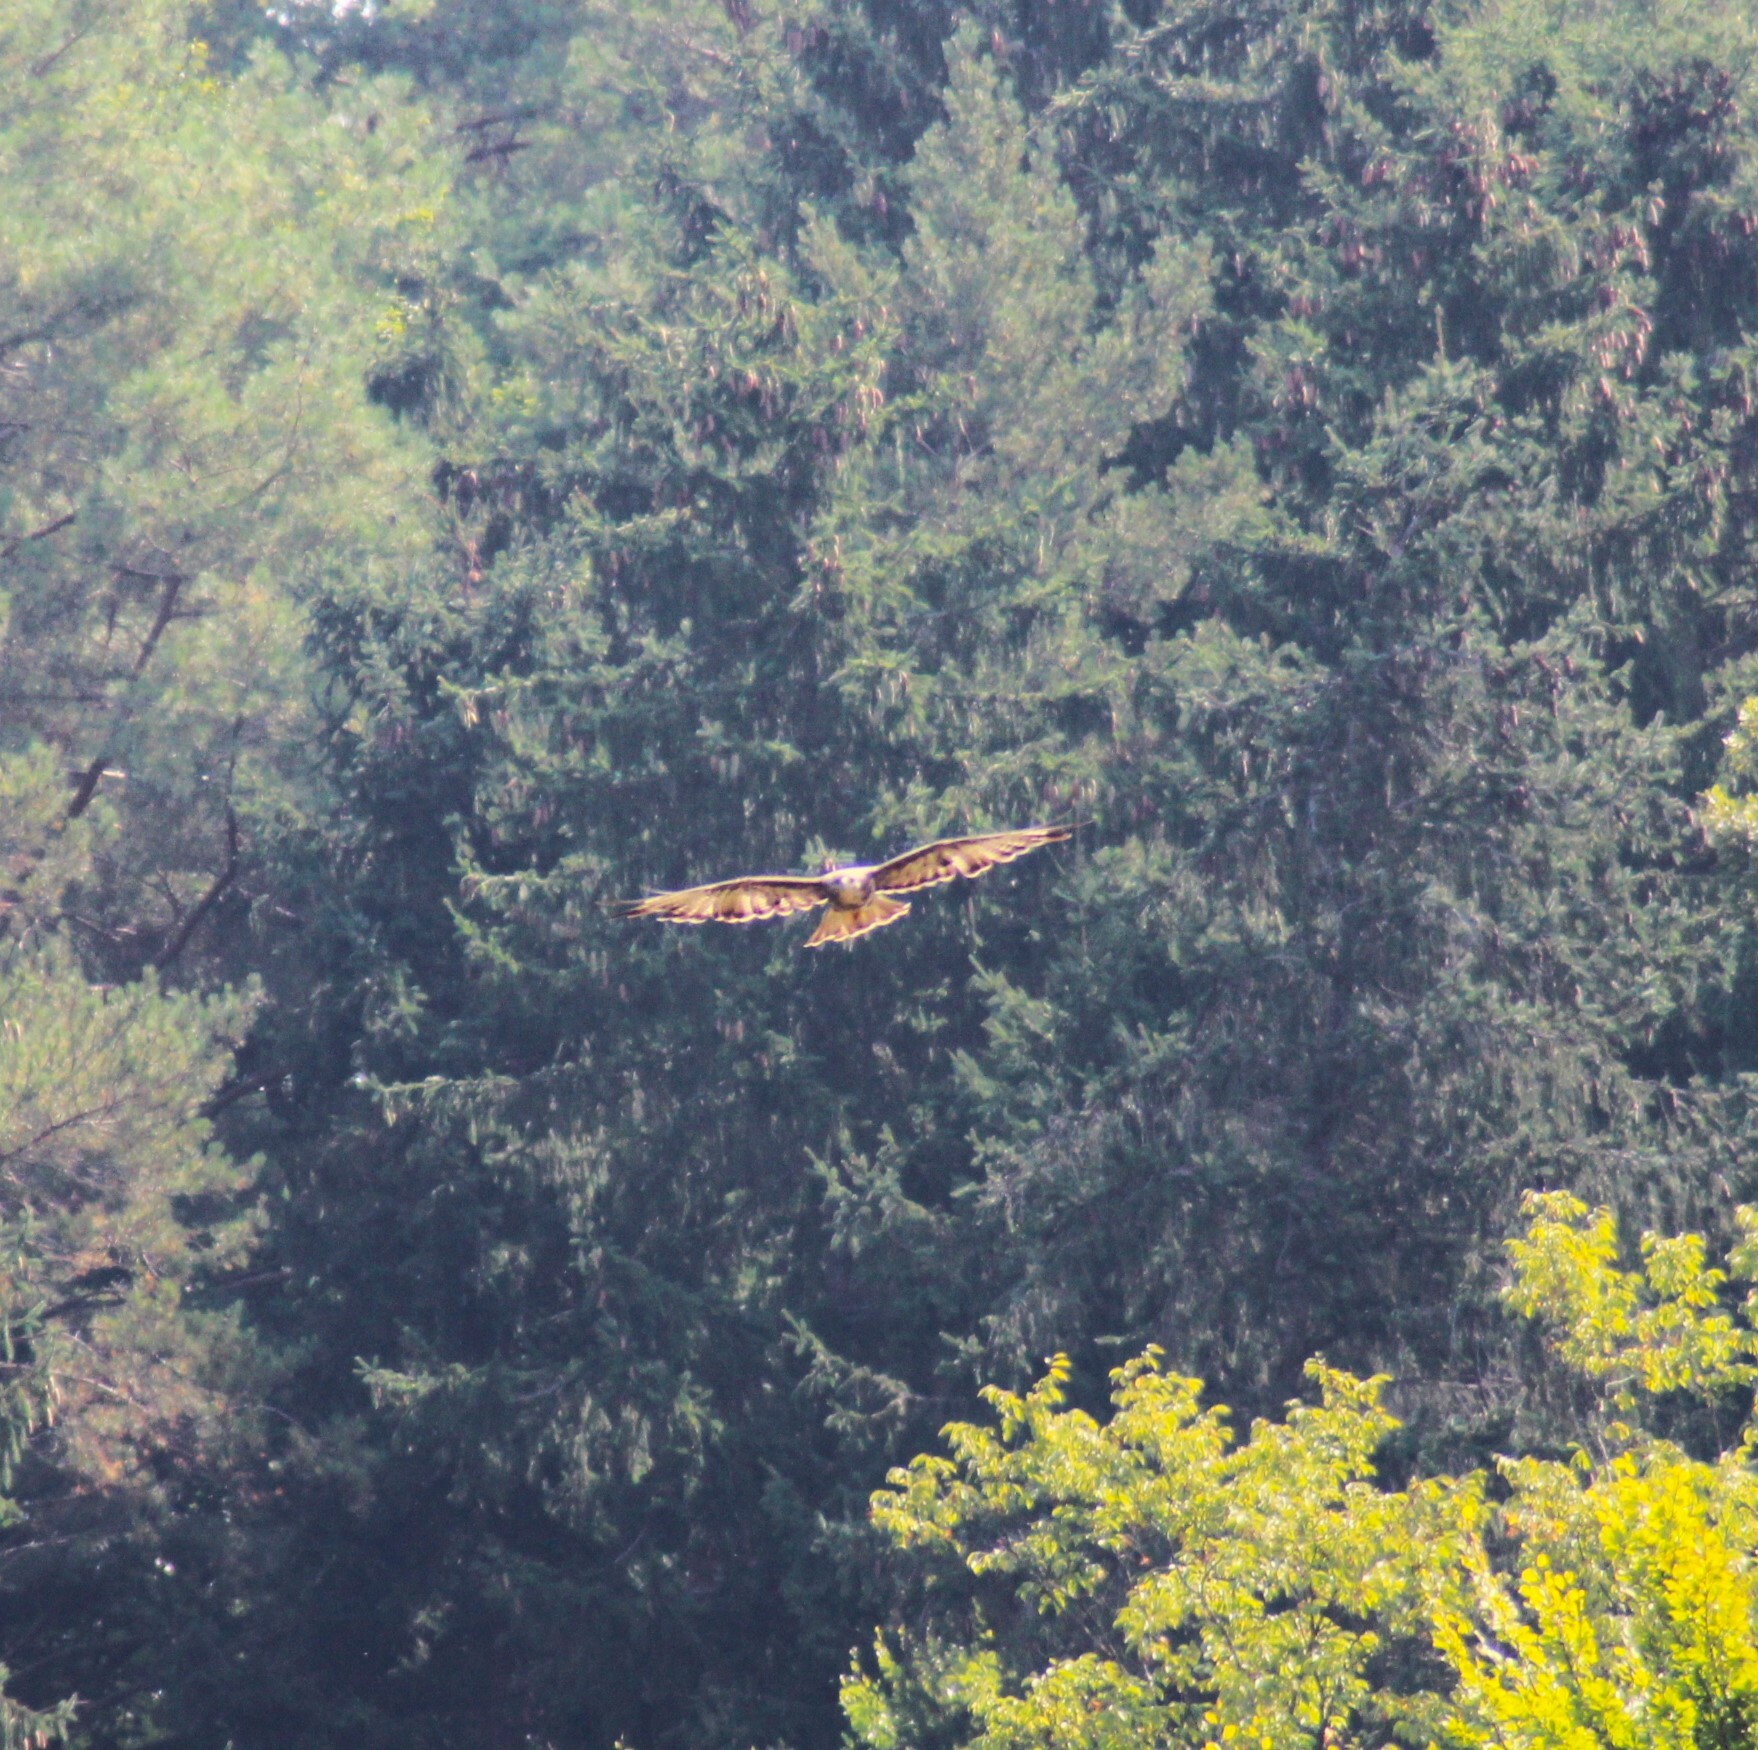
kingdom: Animalia
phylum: Chordata
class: Aves
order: Accipitriformes
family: Accipitridae
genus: Buteo
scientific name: Buteo buteo
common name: Common buzzard
